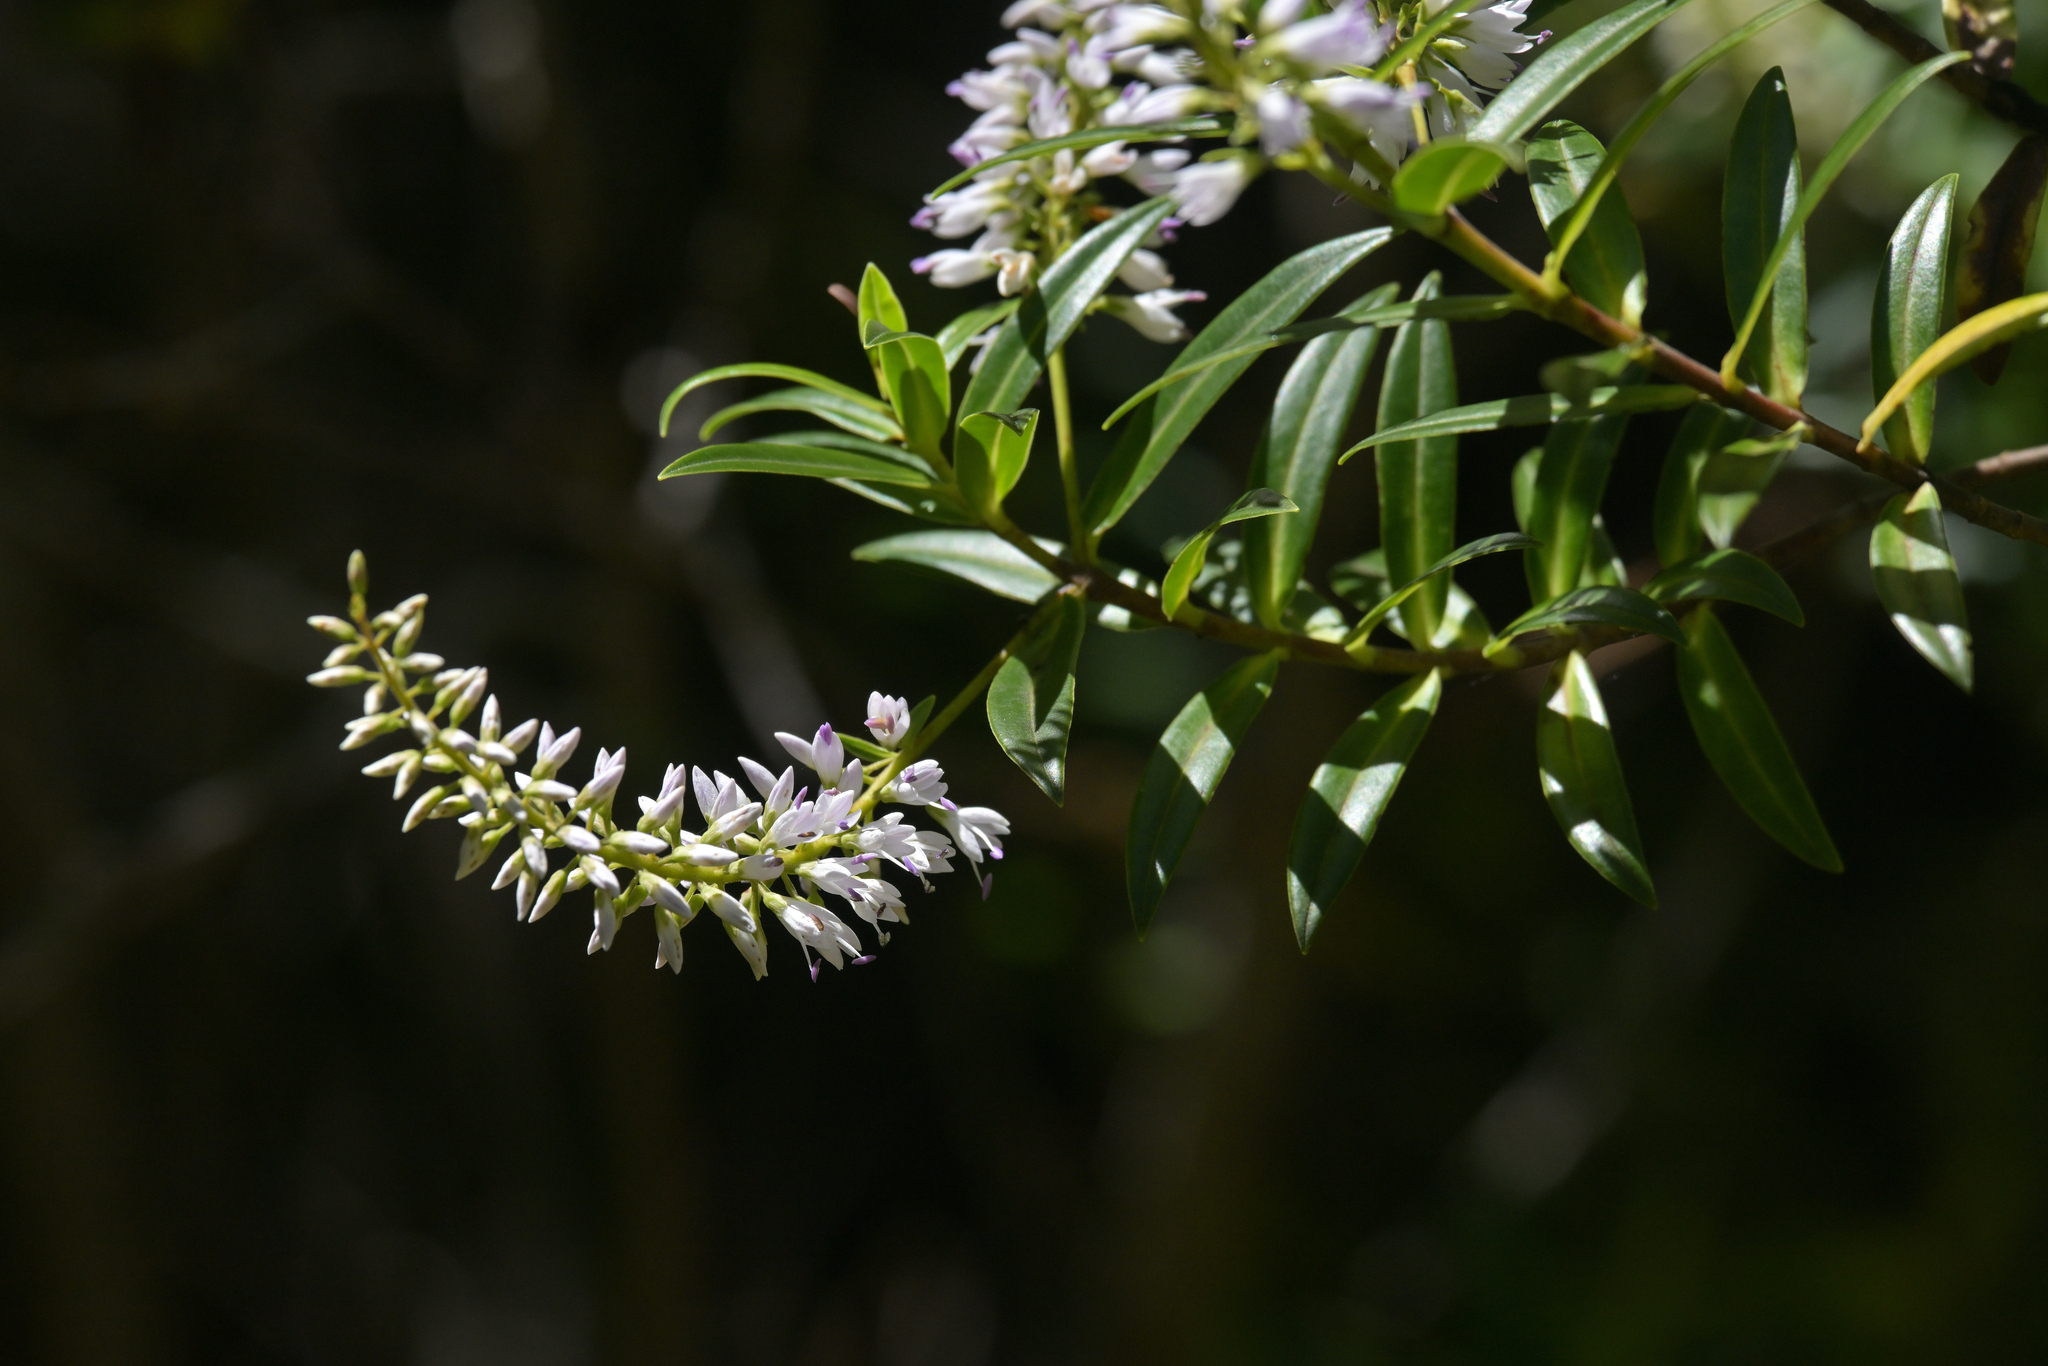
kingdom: Plantae
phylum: Tracheophyta
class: Magnoliopsida
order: Lamiales
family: Plantaginaceae
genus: Veronica
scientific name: Veronica salicifolia
